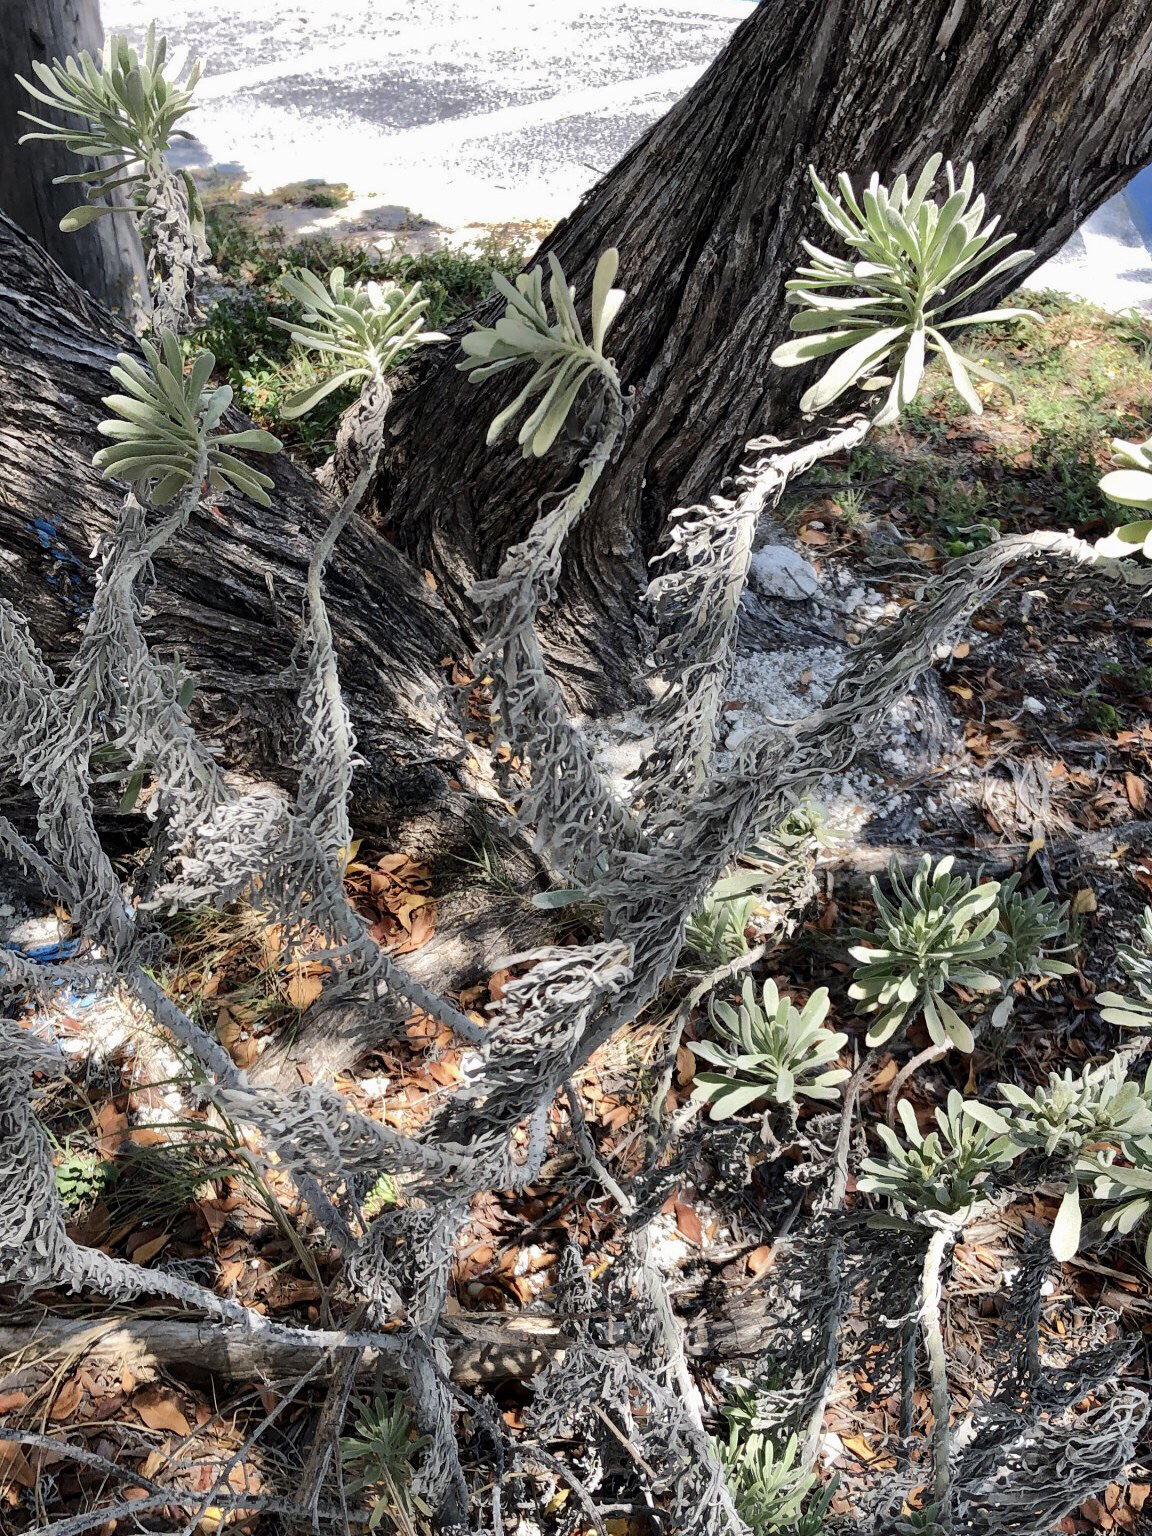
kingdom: Plantae
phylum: Tracheophyta
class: Magnoliopsida
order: Boraginales
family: Heliotropiaceae
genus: Tournefortia
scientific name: Tournefortia gnaphalodes
